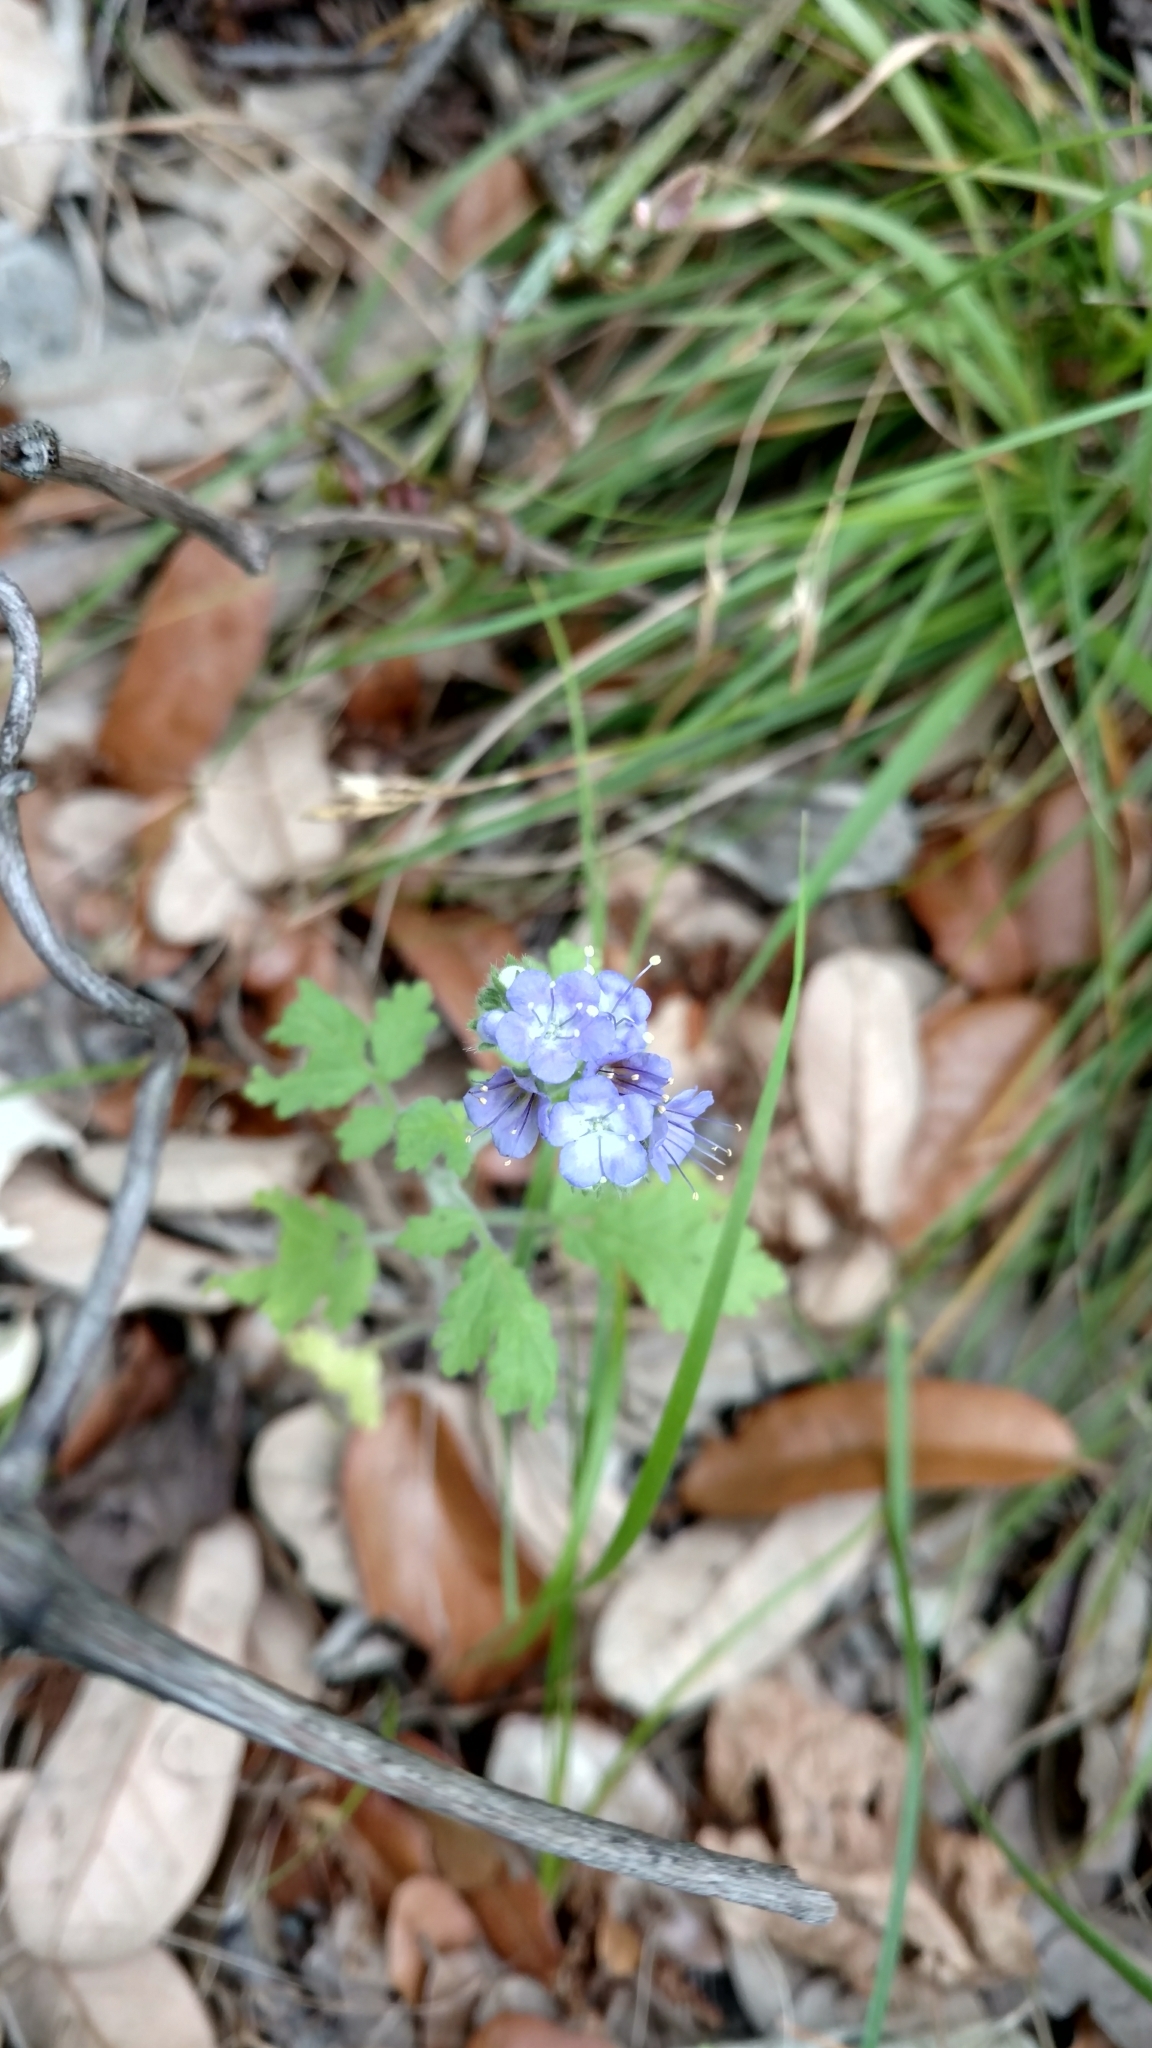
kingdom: Plantae
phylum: Tracheophyta
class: Magnoliopsida
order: Boraginales
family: Hydrophyllaceae
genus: Phacelia
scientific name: Phacelia congesta
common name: Blue curls
